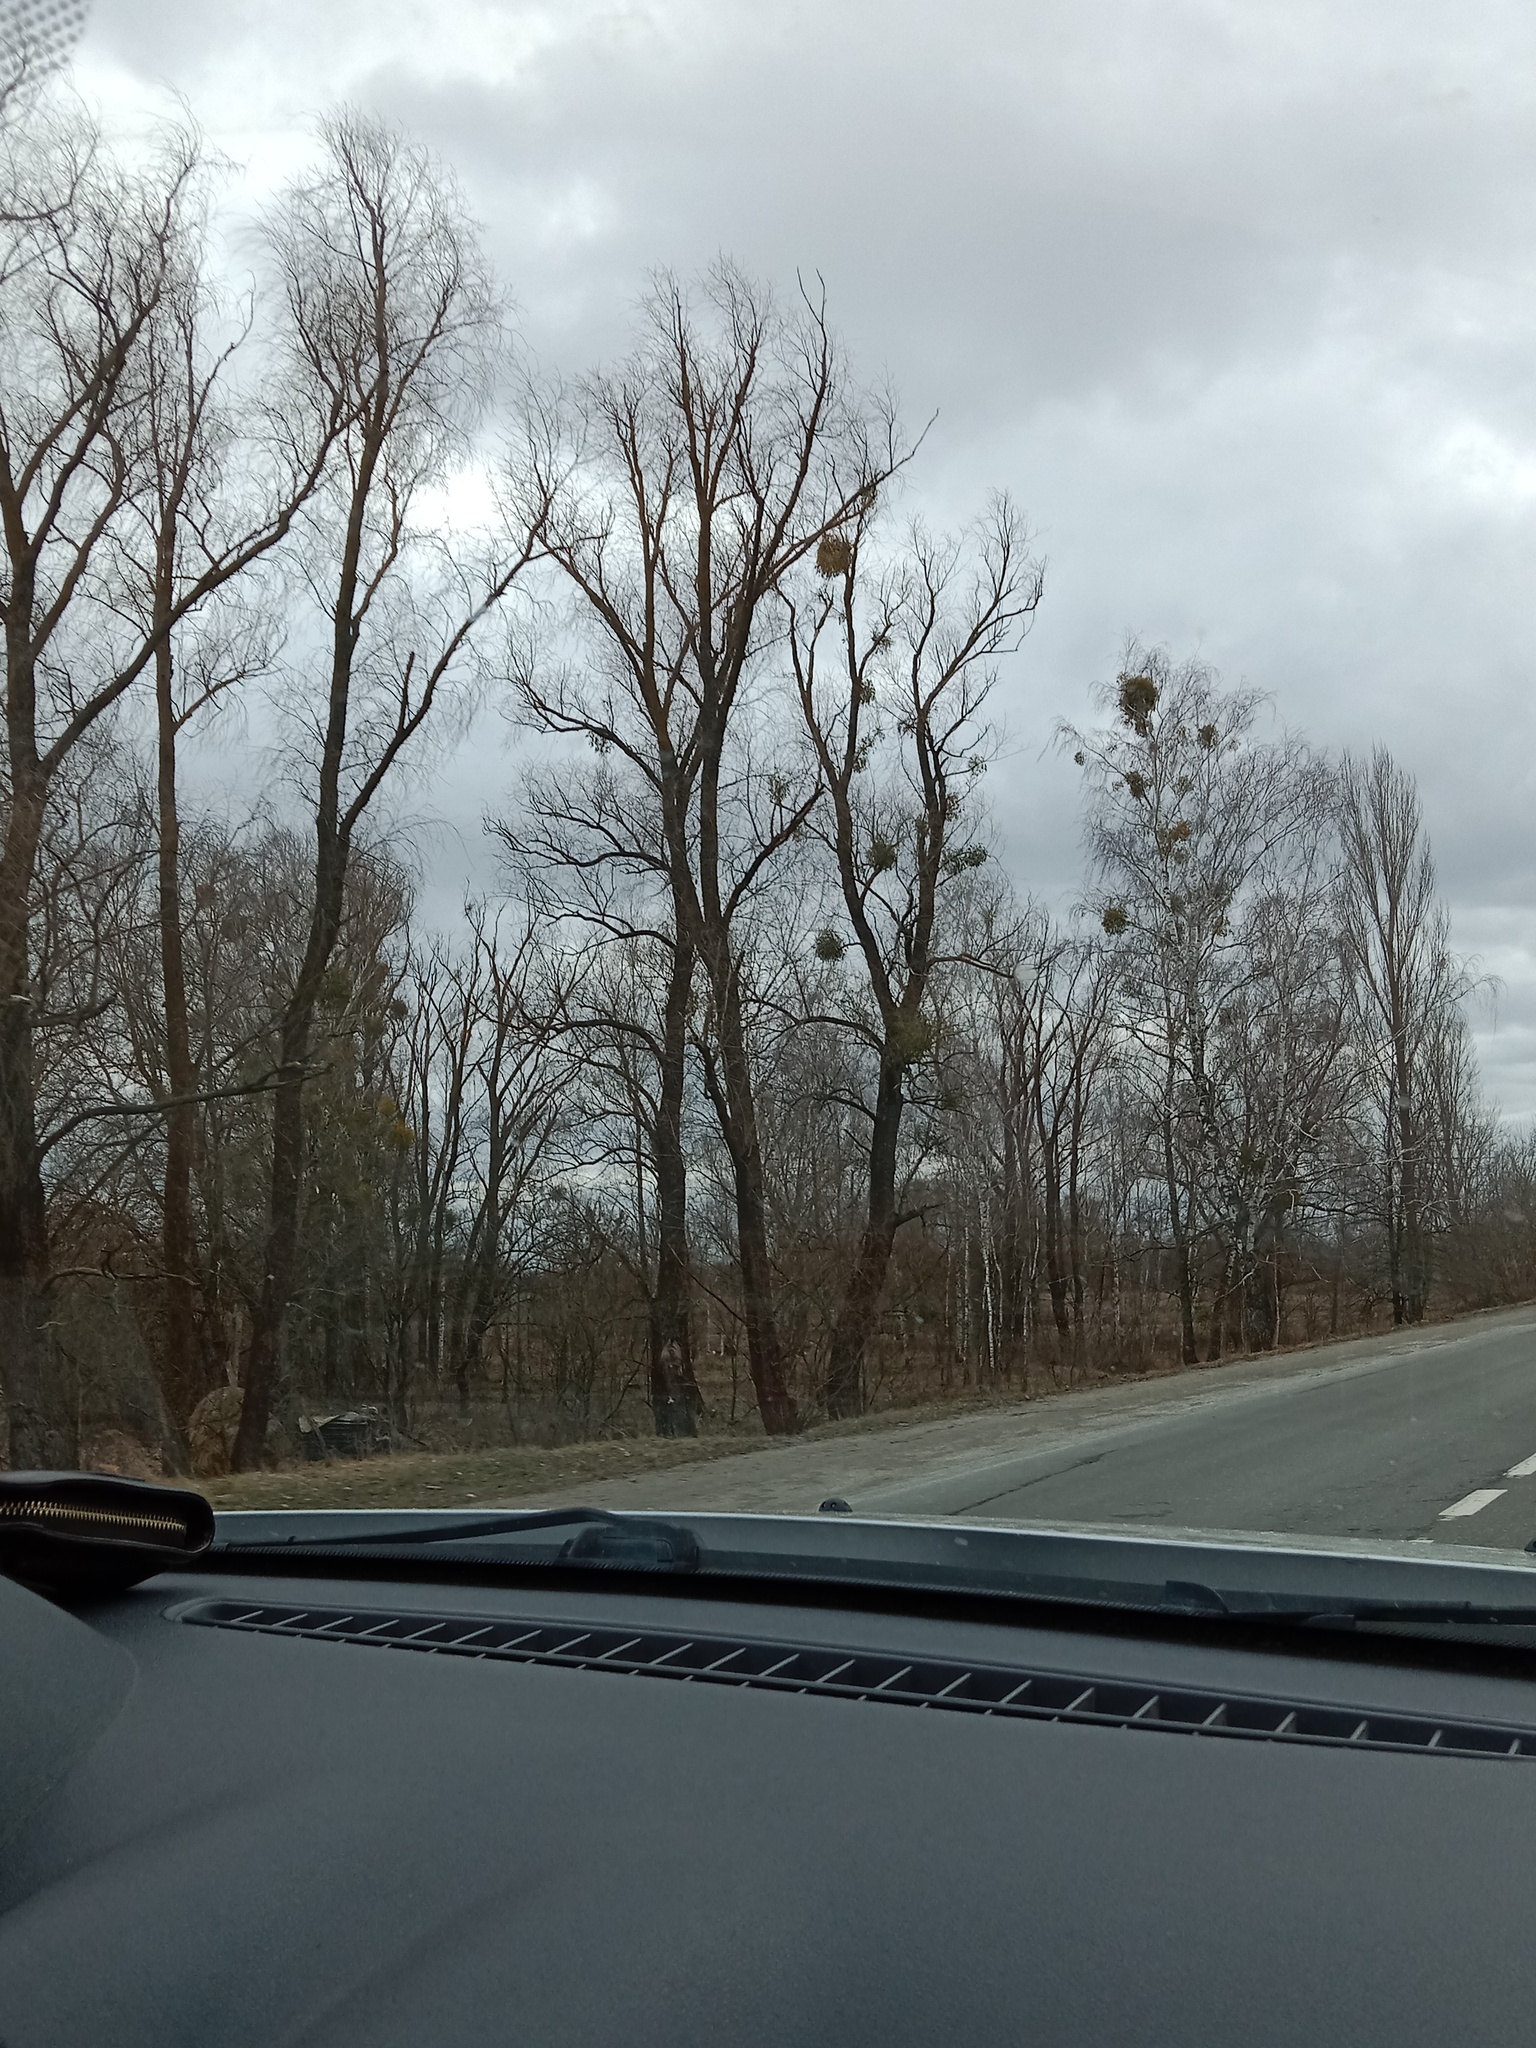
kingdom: Plantae
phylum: Tracheophyta
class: Magnoliopsida
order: Santalales
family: Viscaceae
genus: Viscum
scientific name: Viscum album
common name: Mistletoe
